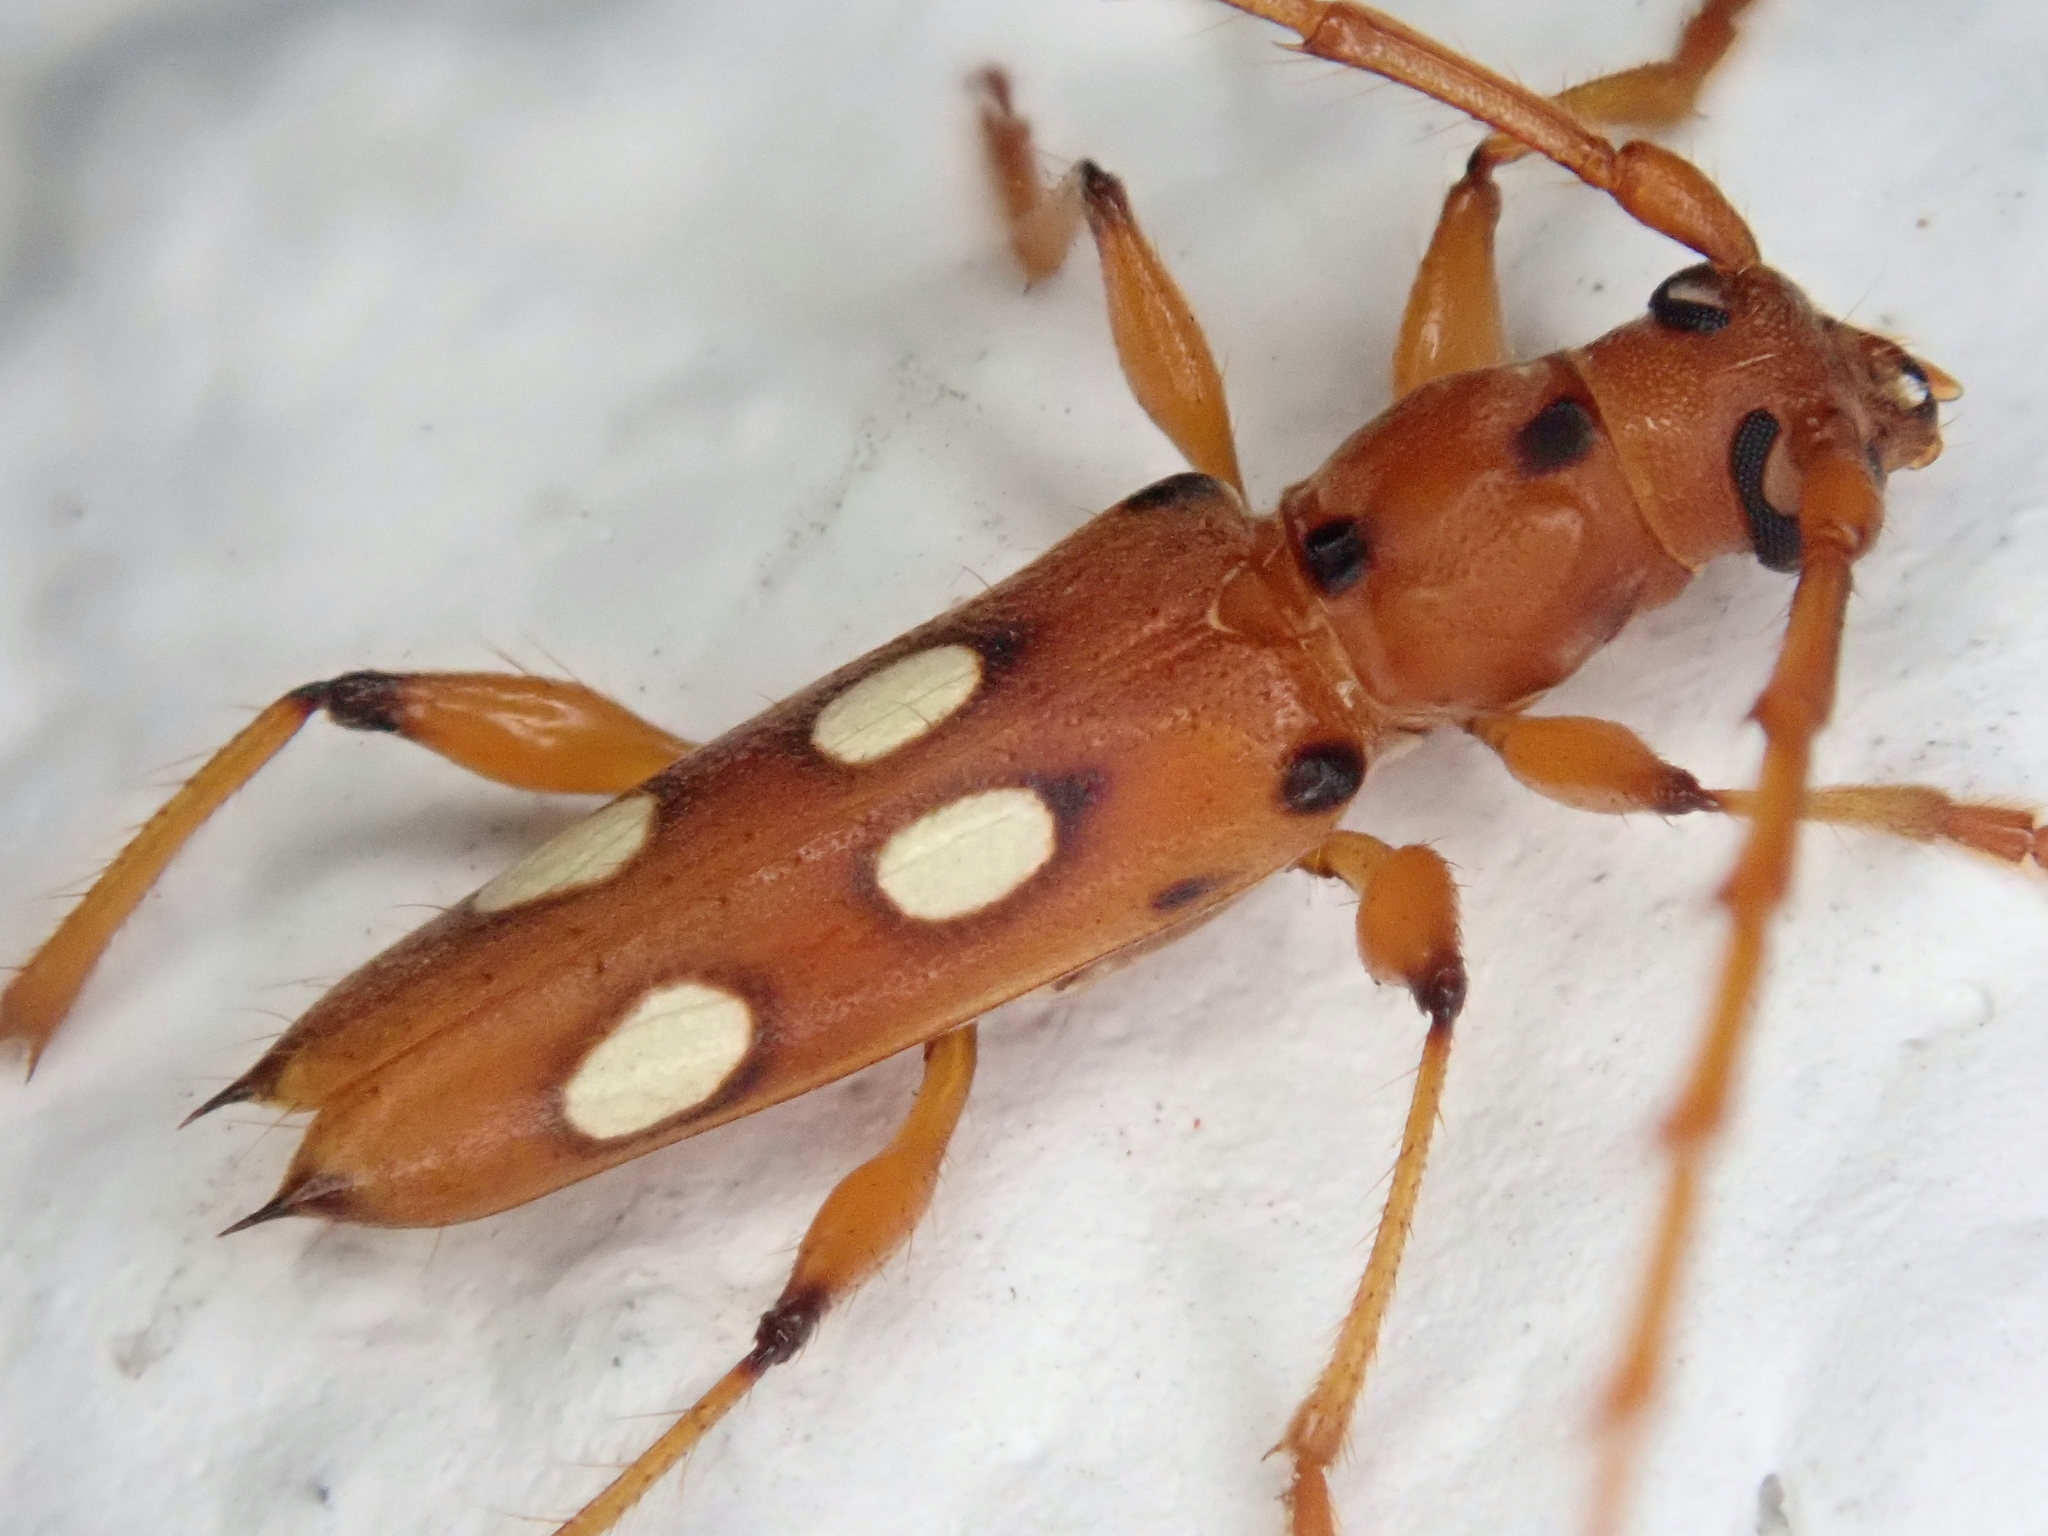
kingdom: Animalia
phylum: Arthropoda
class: Insecta
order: Coleoptera
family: Cerambycidae
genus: Paranyssicus
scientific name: Paranyssicus conspicillatus
